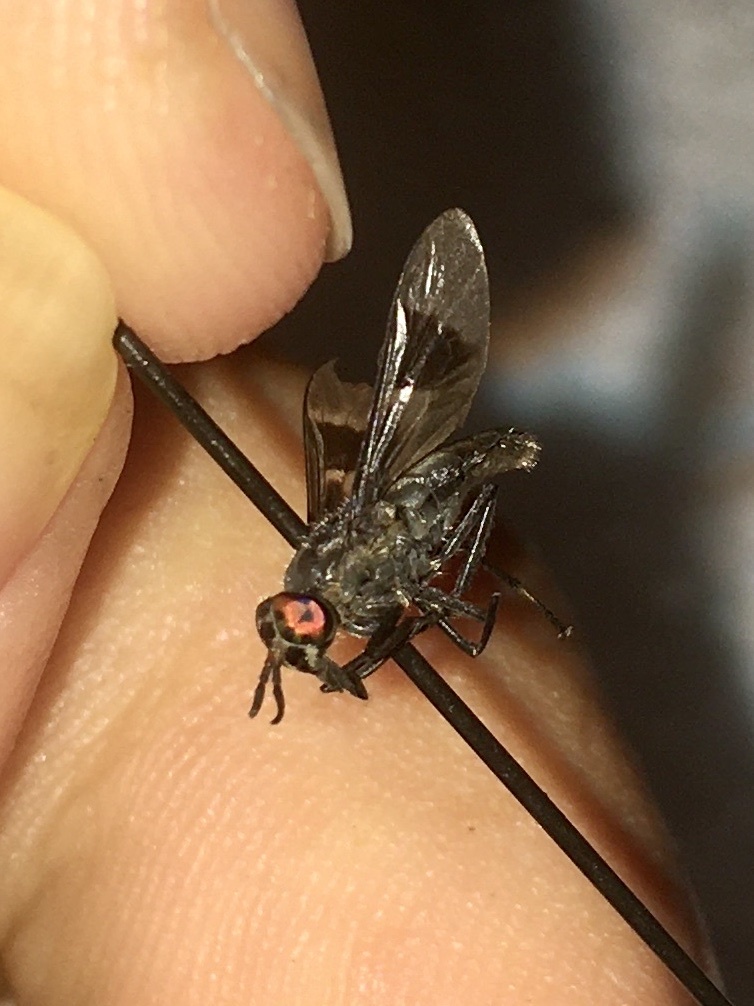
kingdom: Animalia
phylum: Arthropoda
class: Insecta
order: Diptera
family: Tabanidae
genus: Chrysops
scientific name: Chrysops carbonarius
